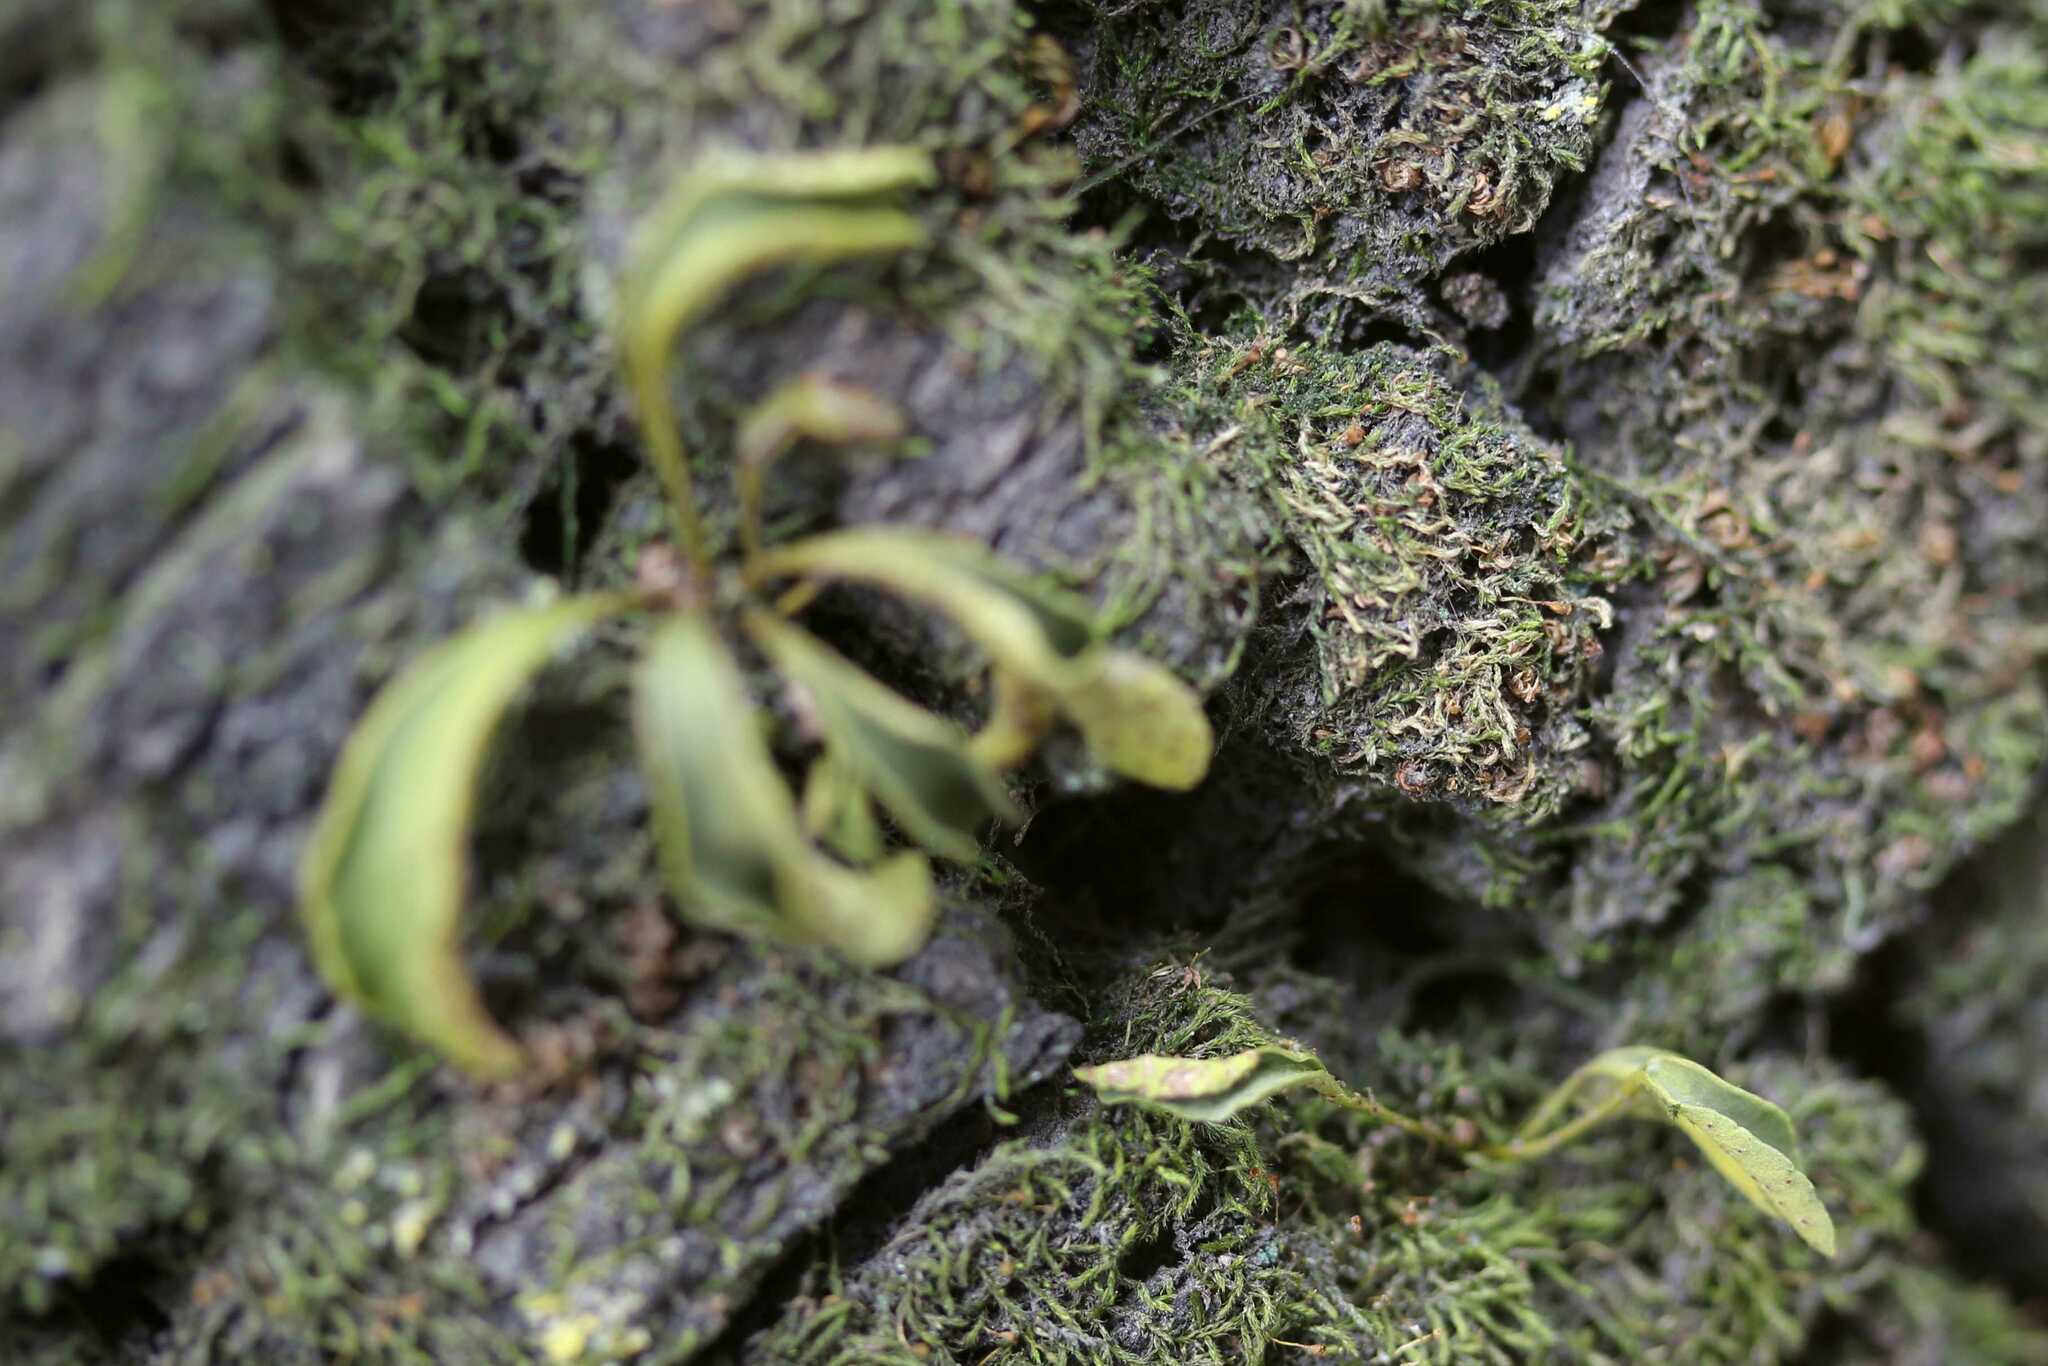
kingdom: Plantae
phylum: Tracheophyta
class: Polypodiopsida
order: Polypodiales
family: Polypodiaceae
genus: Pleopeltis
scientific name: Pleopeltis
